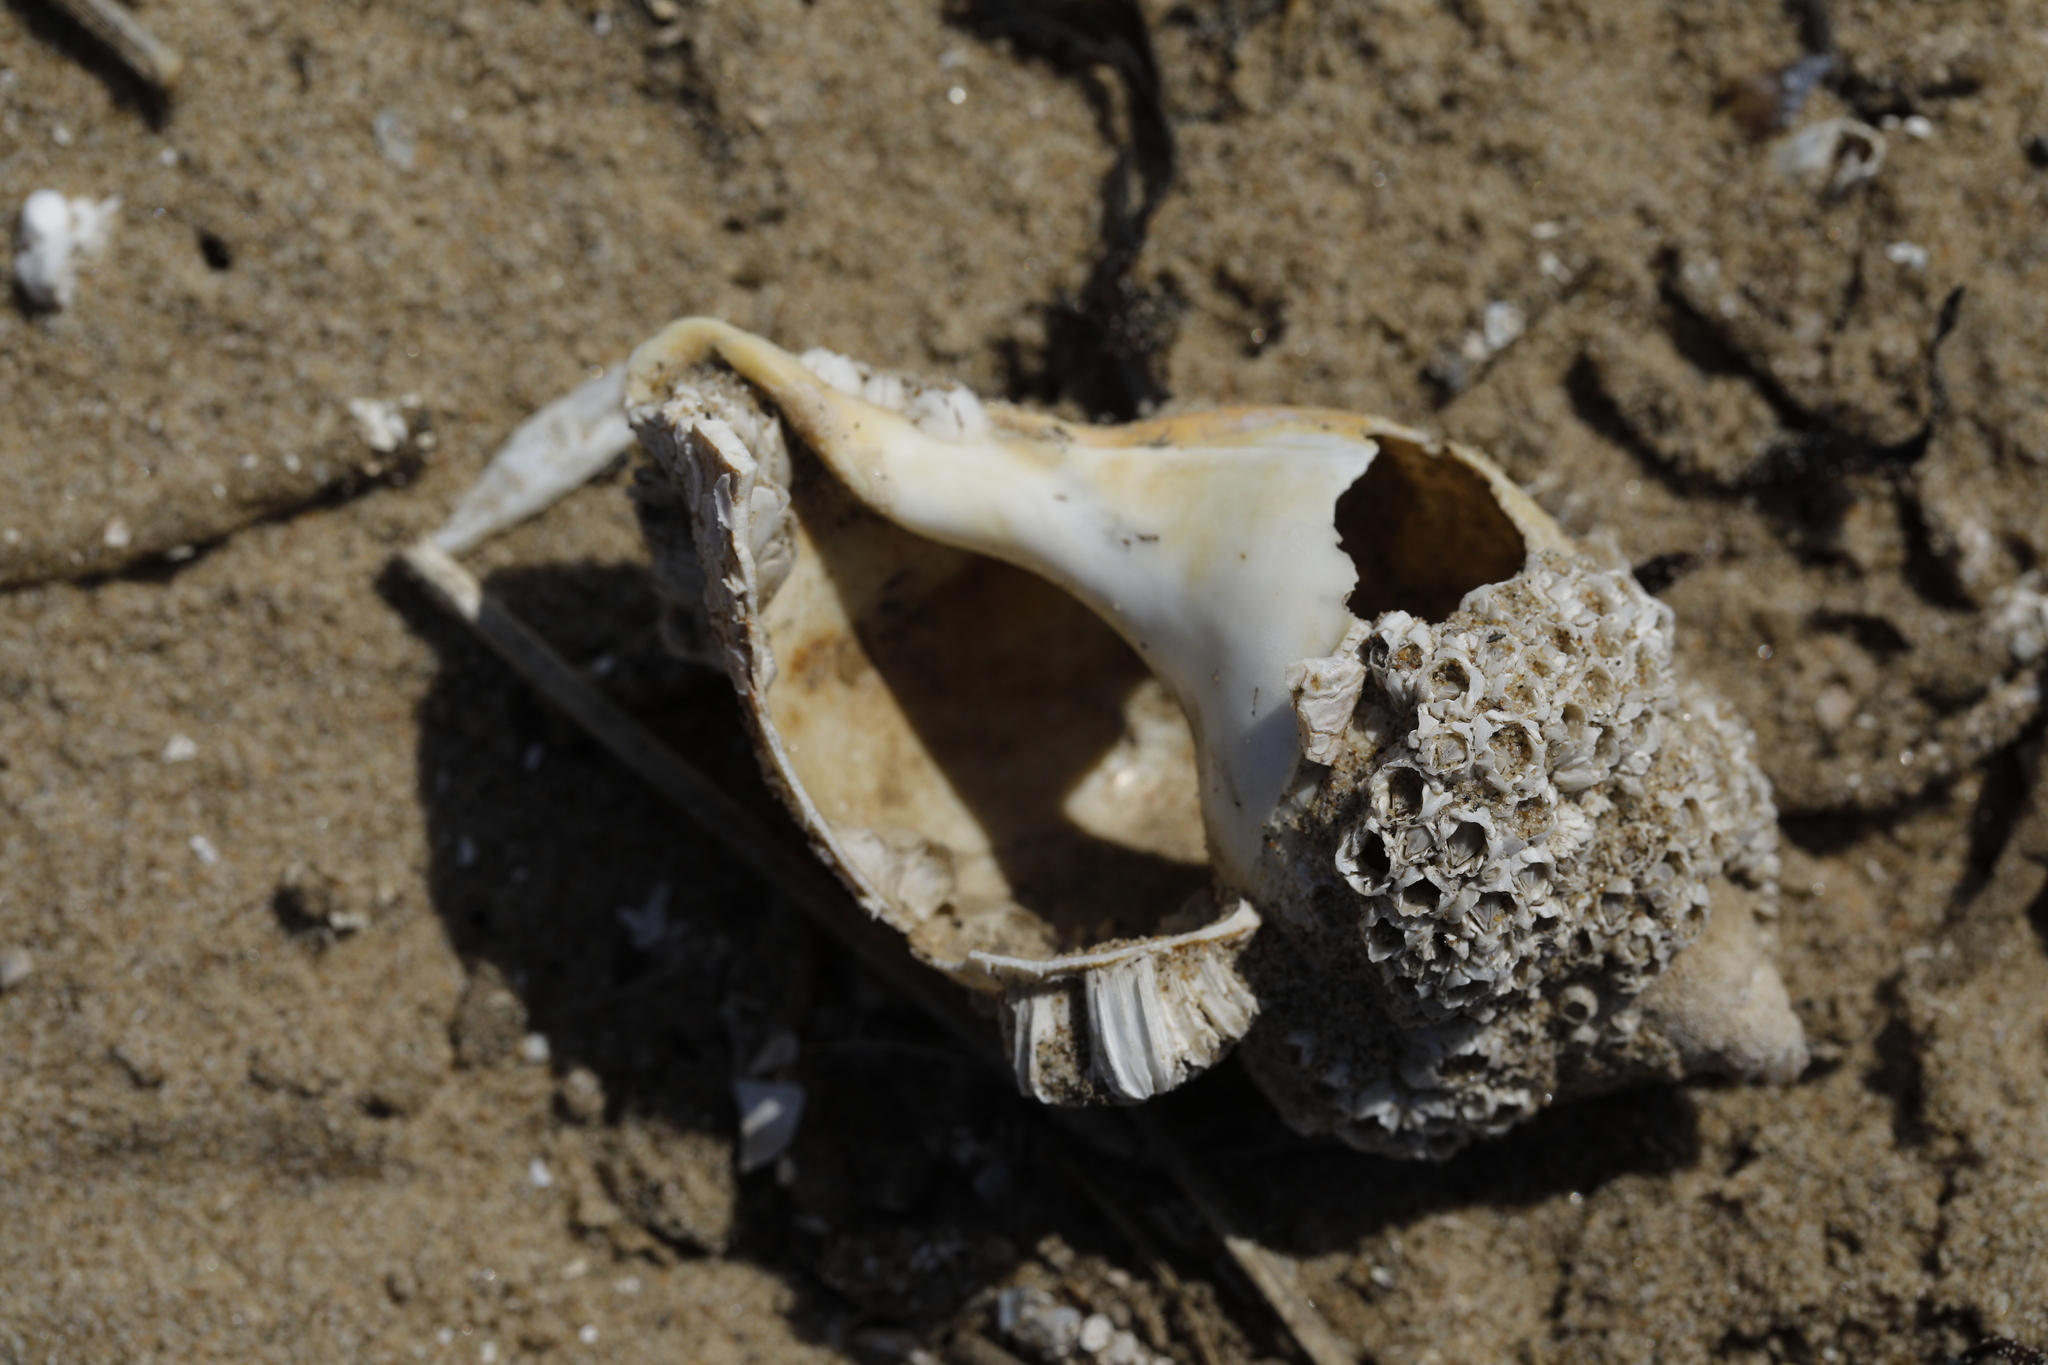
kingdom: Animalia
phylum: Mollusca
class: Gastropoda
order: Neogastropoda
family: Buccinidae
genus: Buccinum
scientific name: Buccinum undatum
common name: Common whelk
